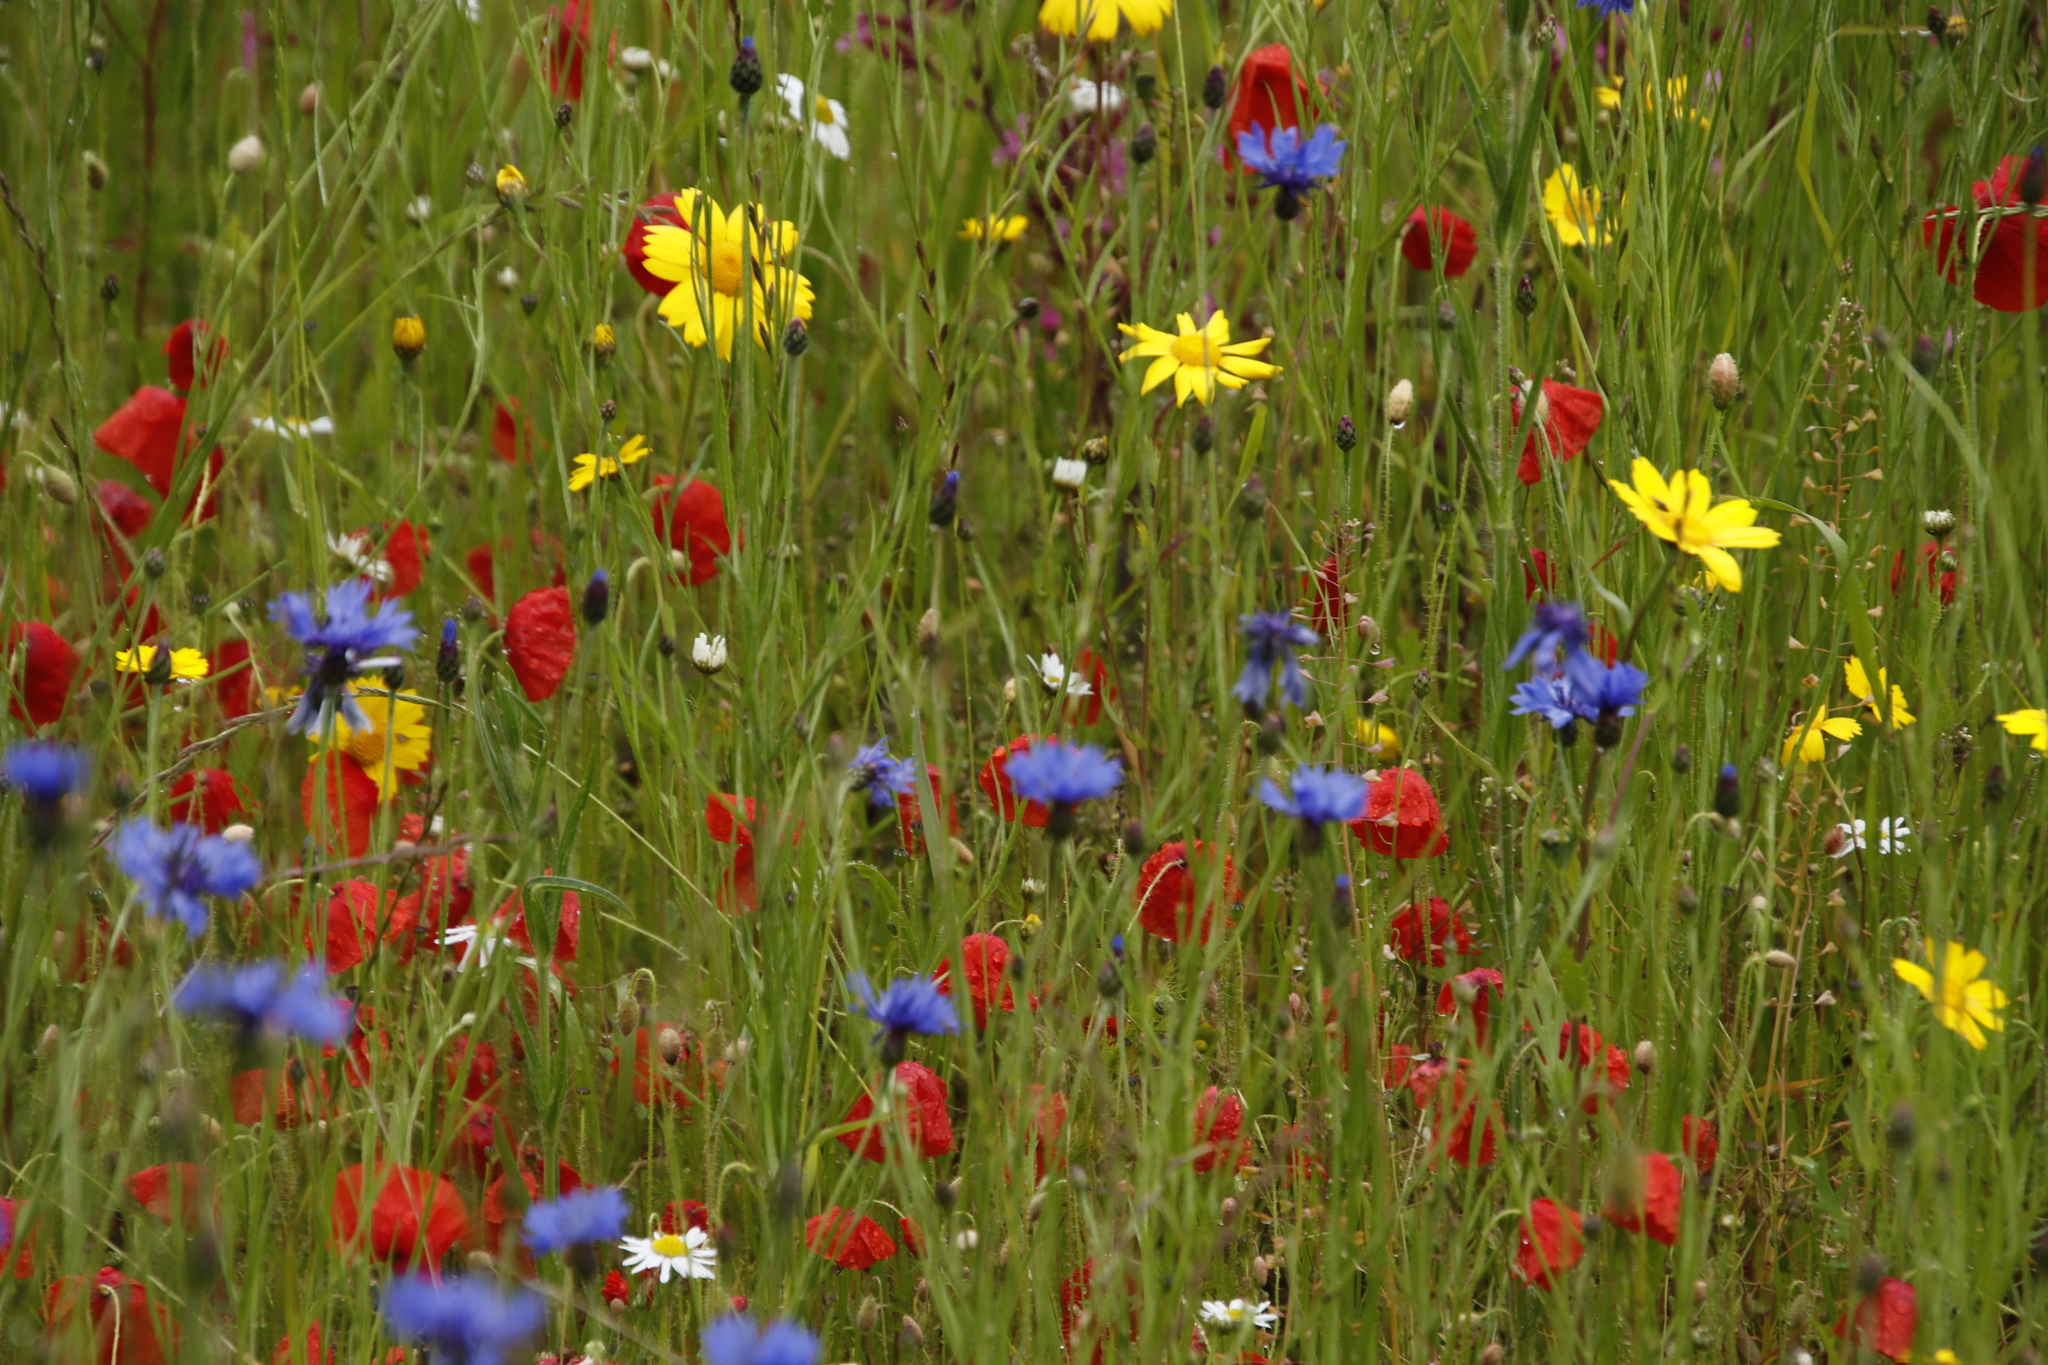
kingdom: Plantae
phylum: Tracheophyta
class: Magnoliopsida
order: Asterales
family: Asteraceae
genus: Glebionis
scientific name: Glebionis segetum
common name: Corndaisy
